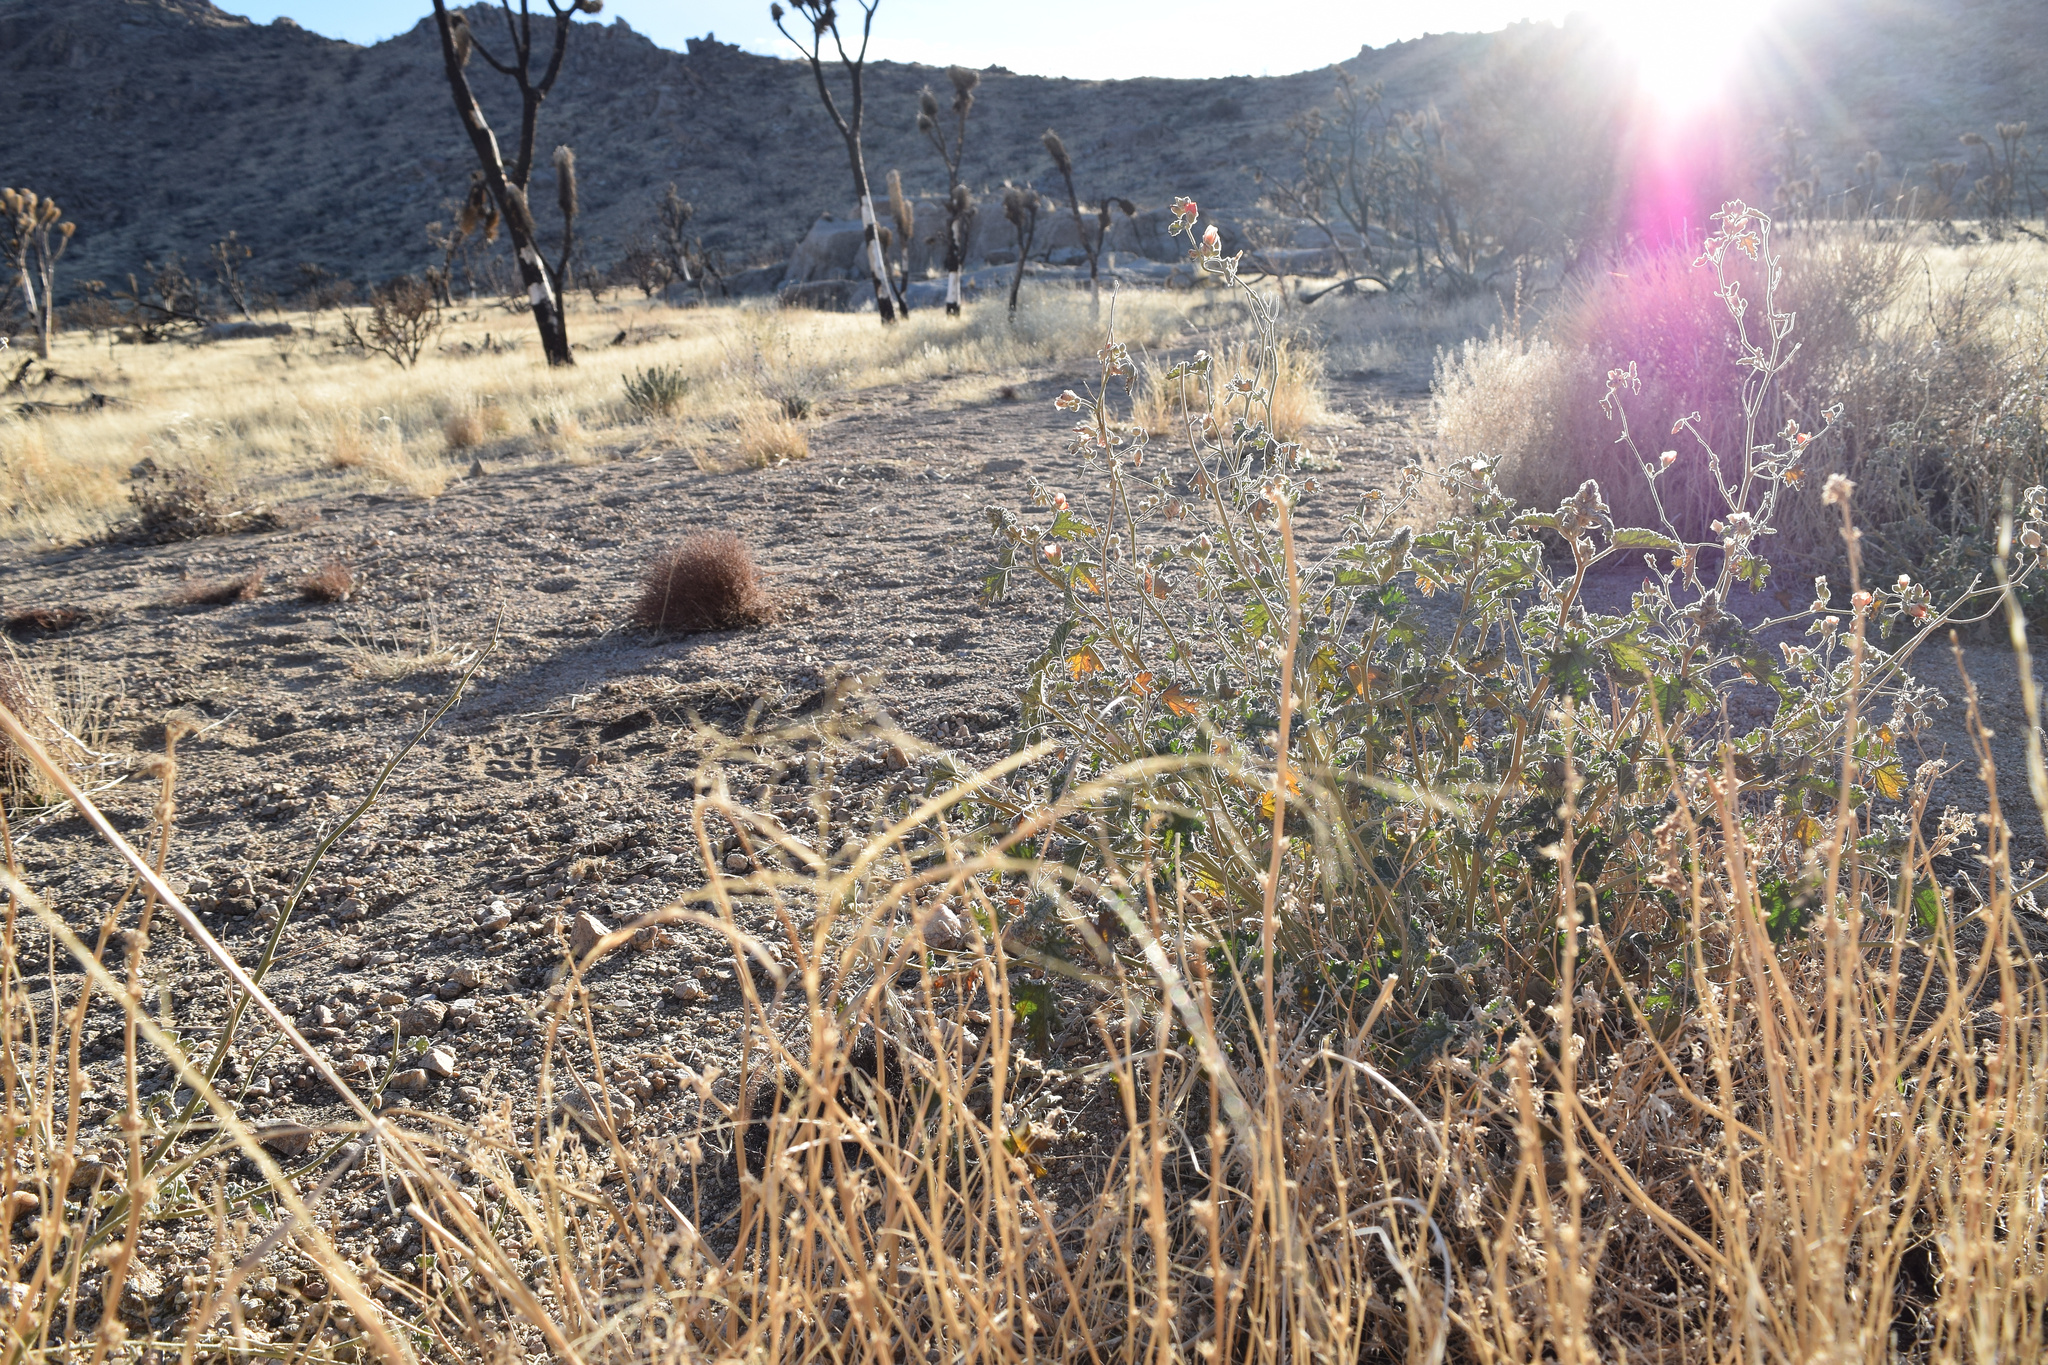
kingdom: Plantae
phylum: Tracheophyta
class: Magnoliopsida
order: Malvales
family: Malvaceae
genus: Sphaeralcea
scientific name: Sphaeralcea ambigua
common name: Apricot globe-mallow
